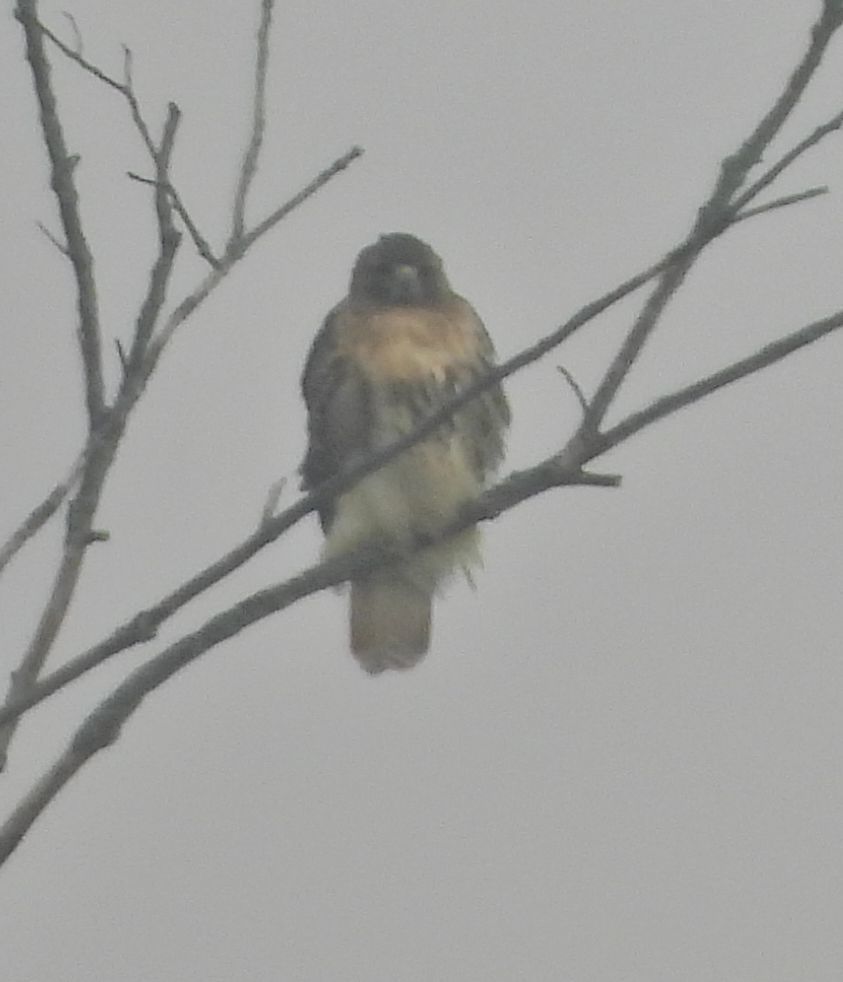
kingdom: Animalia
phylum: Chordata
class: Aves
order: Accipitriformes
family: Accipitridae
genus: Buteo
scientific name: Buteo jamaicensis
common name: Red-tailed hawk
